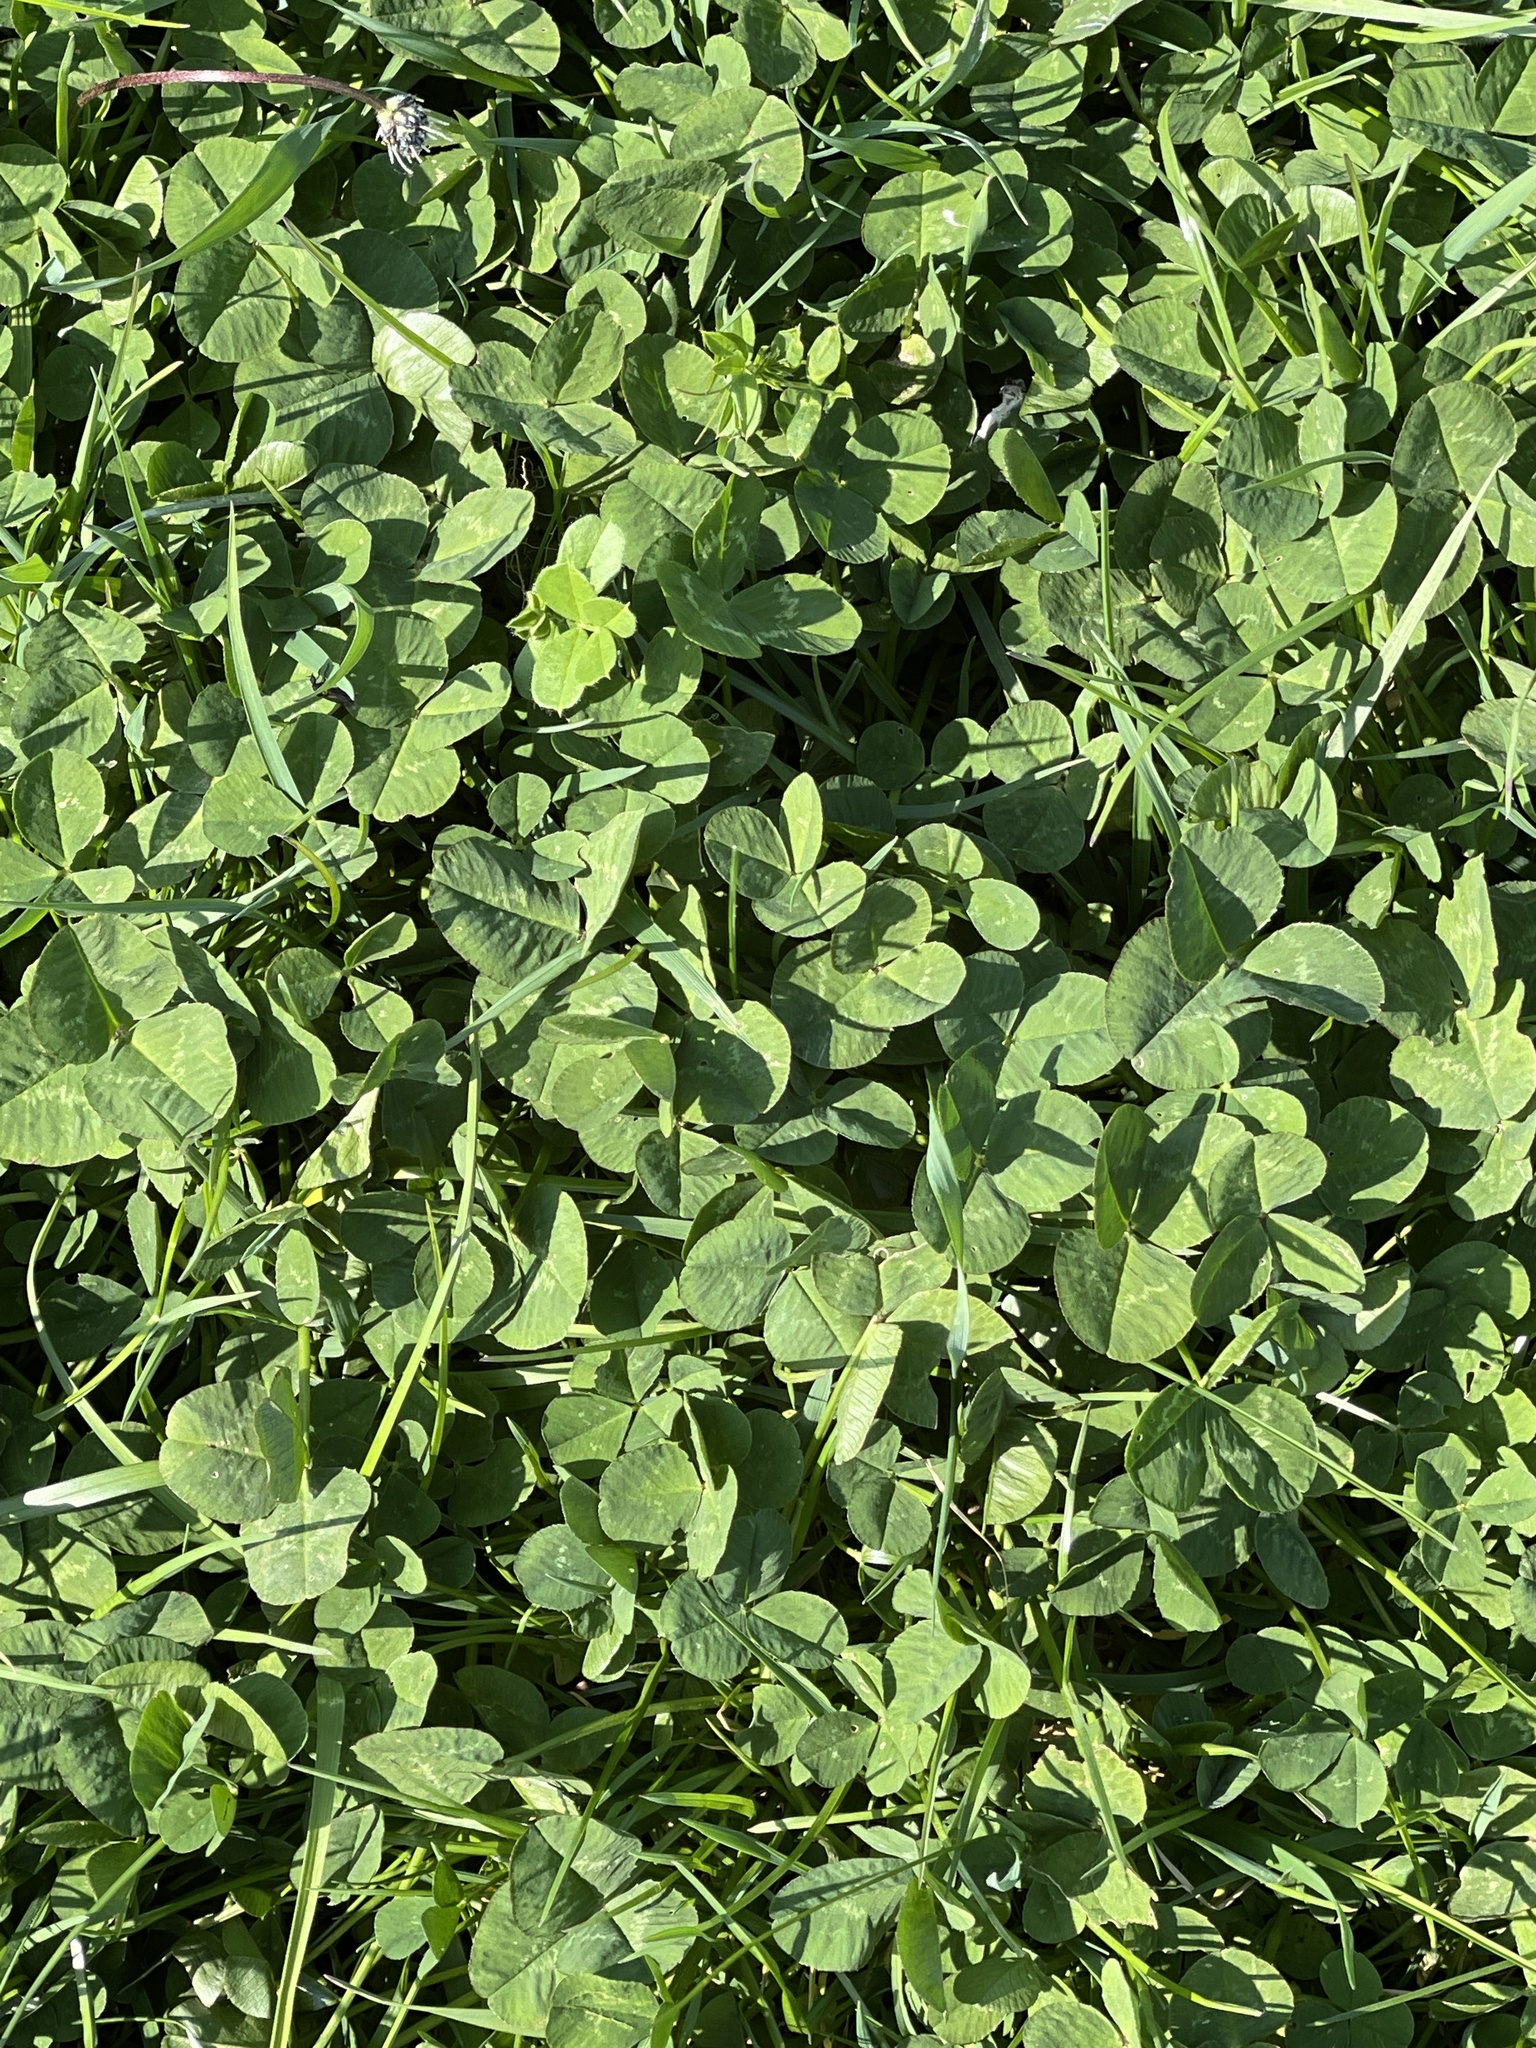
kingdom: Plantae
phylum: Tracheophyta
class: Magnoliopsida
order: Fabales
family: Fabaceae
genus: Trifolium
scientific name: Trifolium repens
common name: White clover
